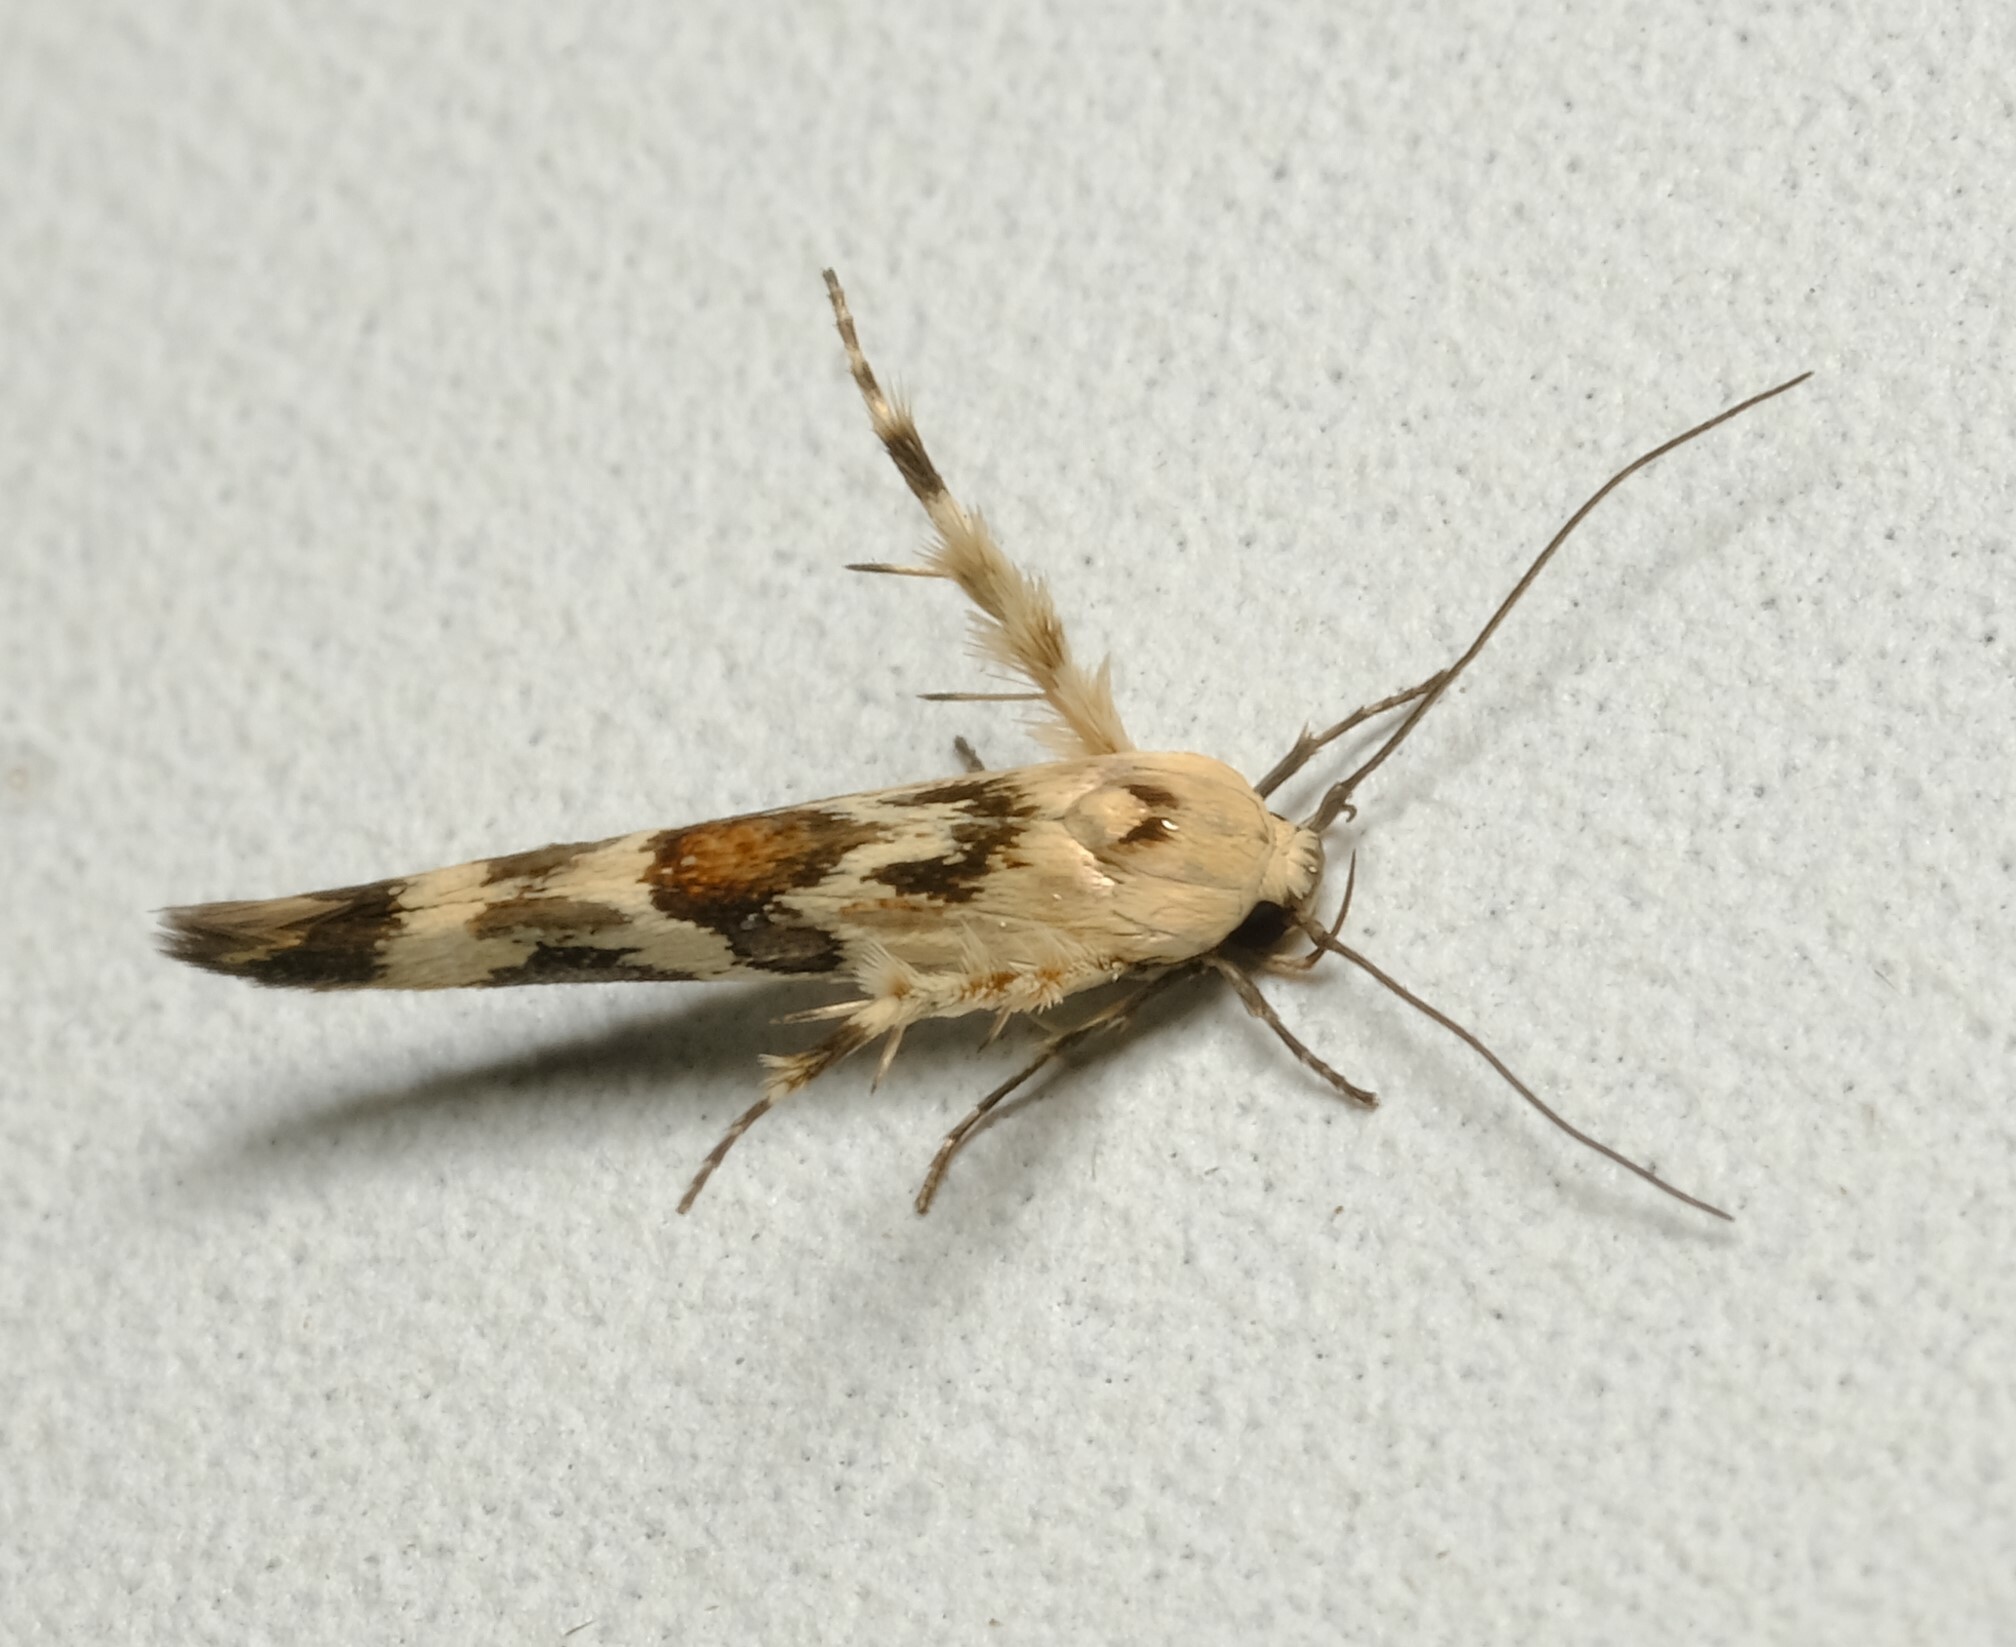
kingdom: Animalia
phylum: Arthropoda
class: Insecta
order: Lepidoptera
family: Stathmopodidae
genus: Stathmopoda
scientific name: Stathmopoda melanochra
